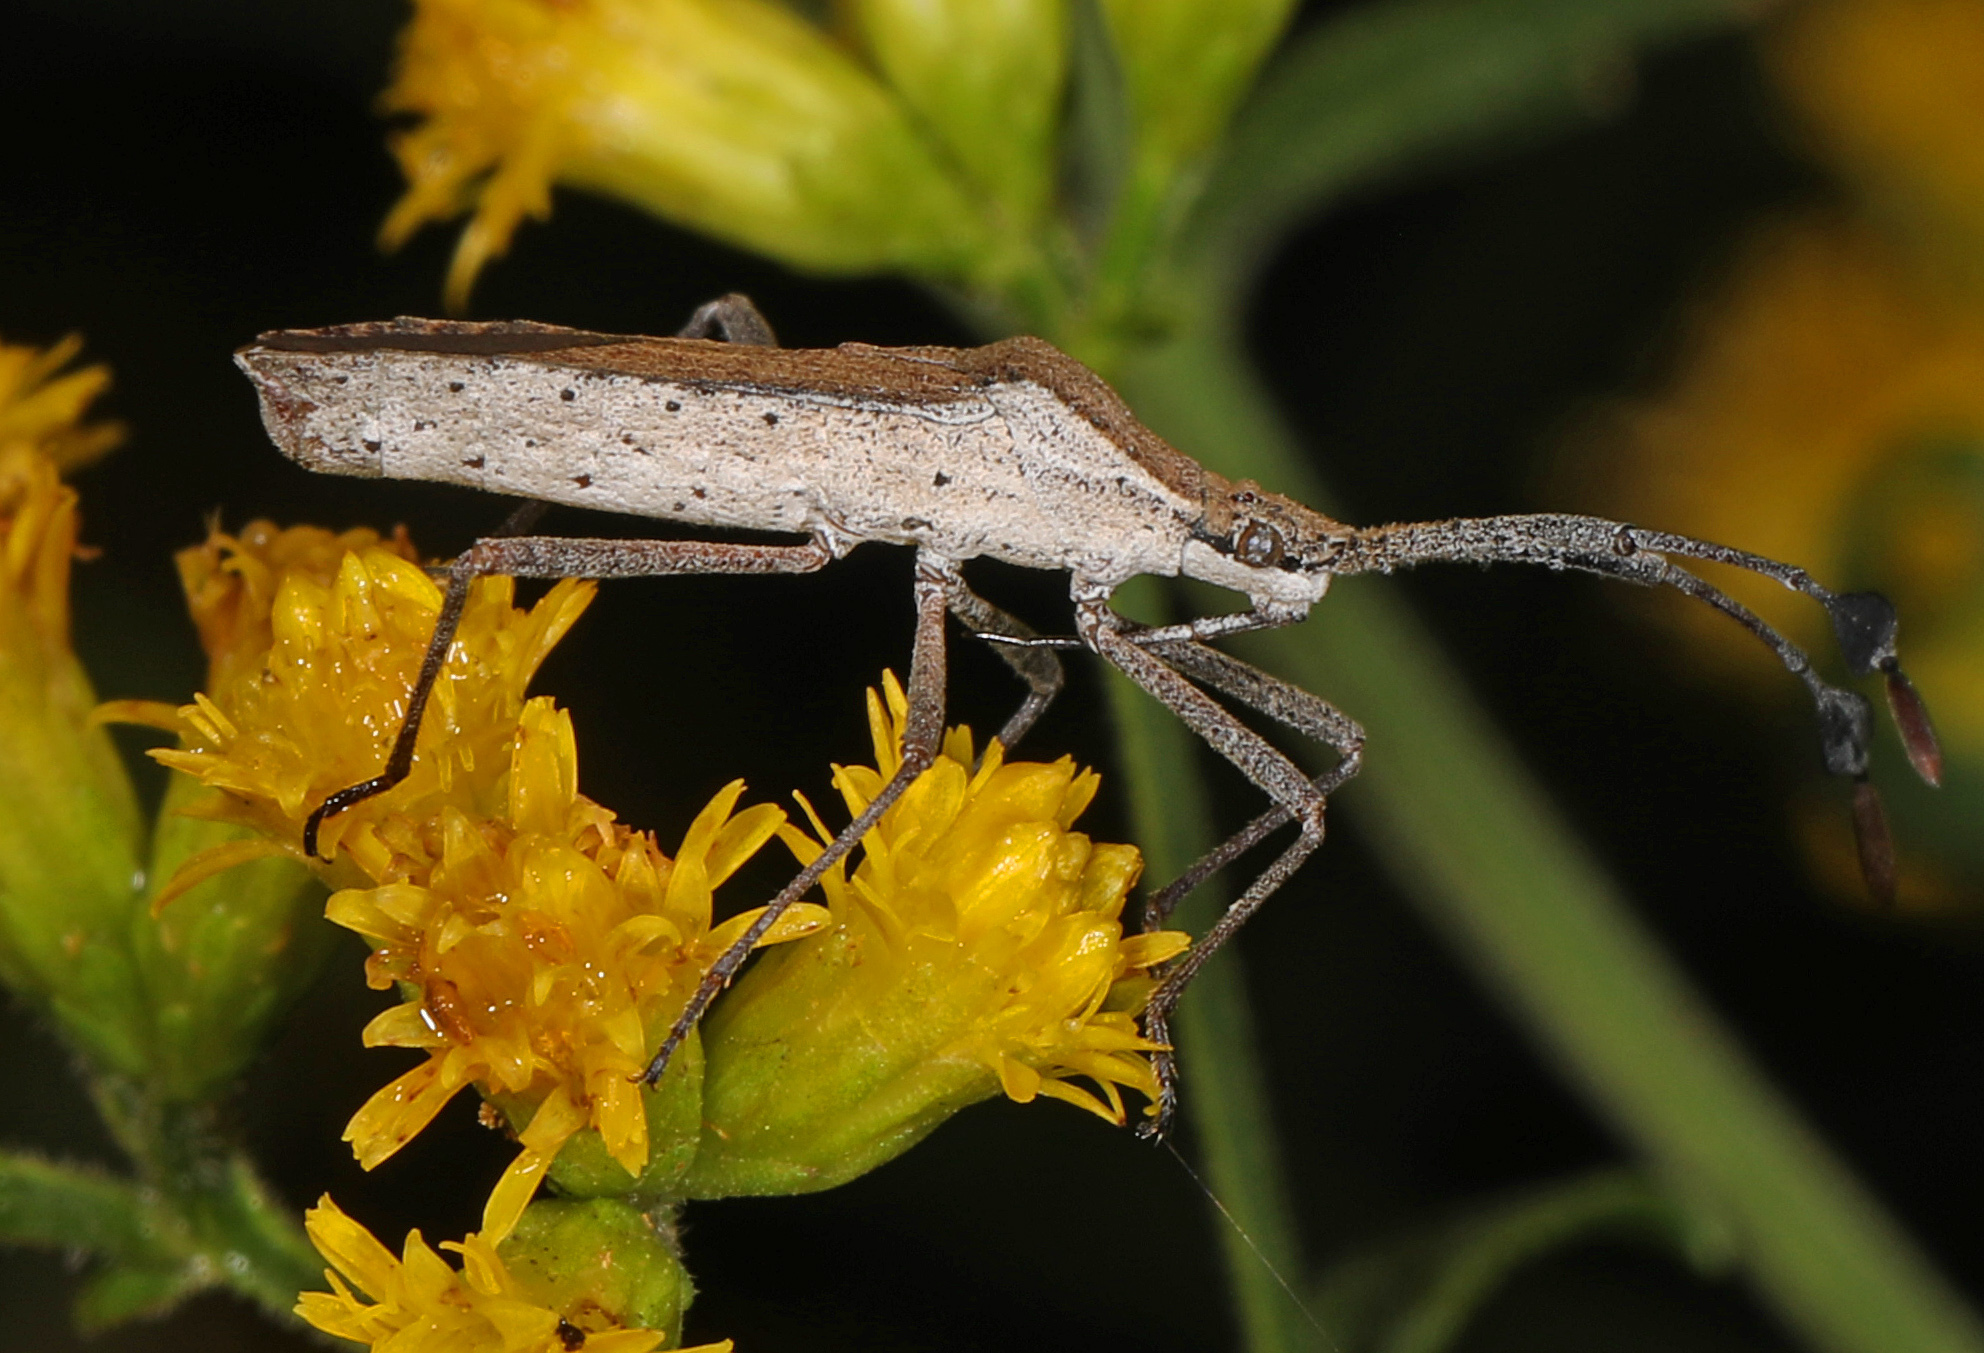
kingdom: Animalia
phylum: Arthropoda
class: Insecta
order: Hemiptera
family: Coreidae
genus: Chariesterus
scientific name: Chariesterus antennator
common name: Flat horned coreid
